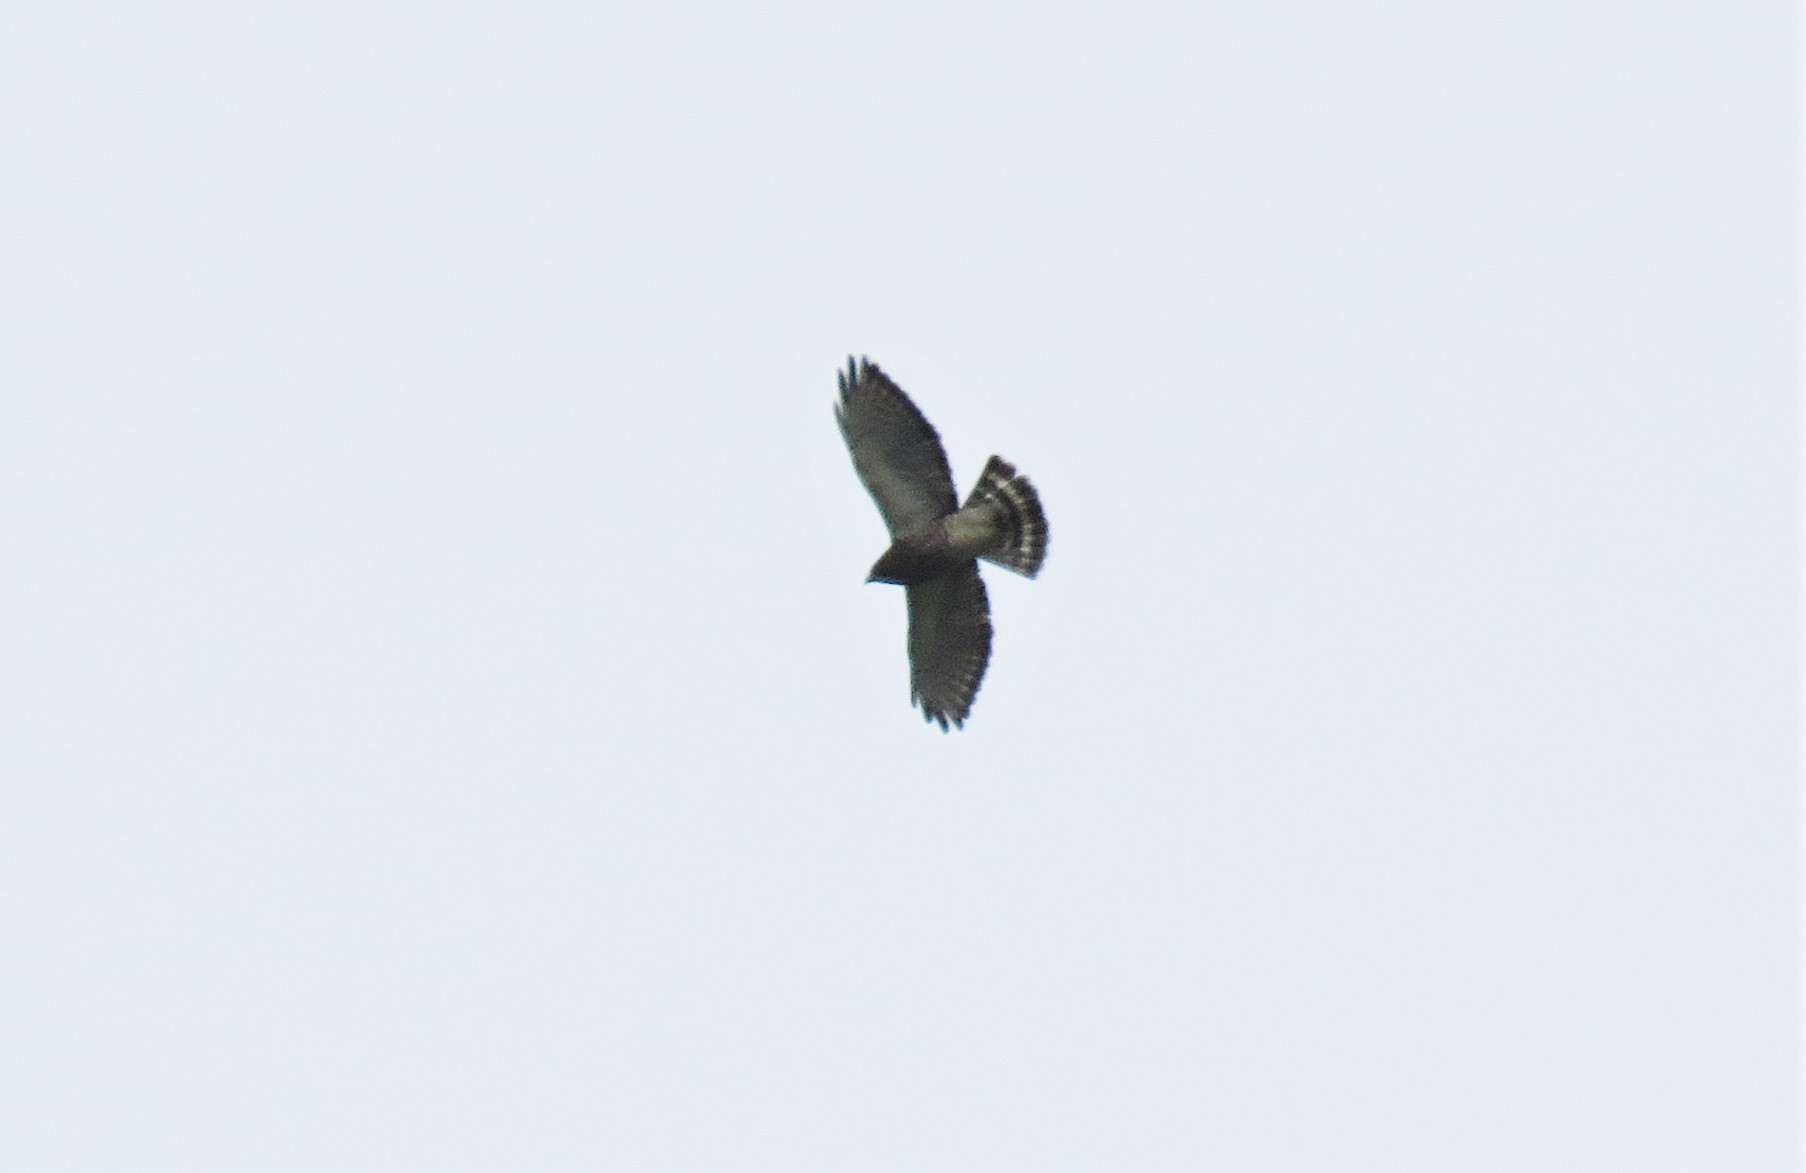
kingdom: Animalia
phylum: Chordata
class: Aves
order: Accipitriformes
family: Accipitridae
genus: Buteo
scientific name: Buteo platypterus
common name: Broad-winged hawk
